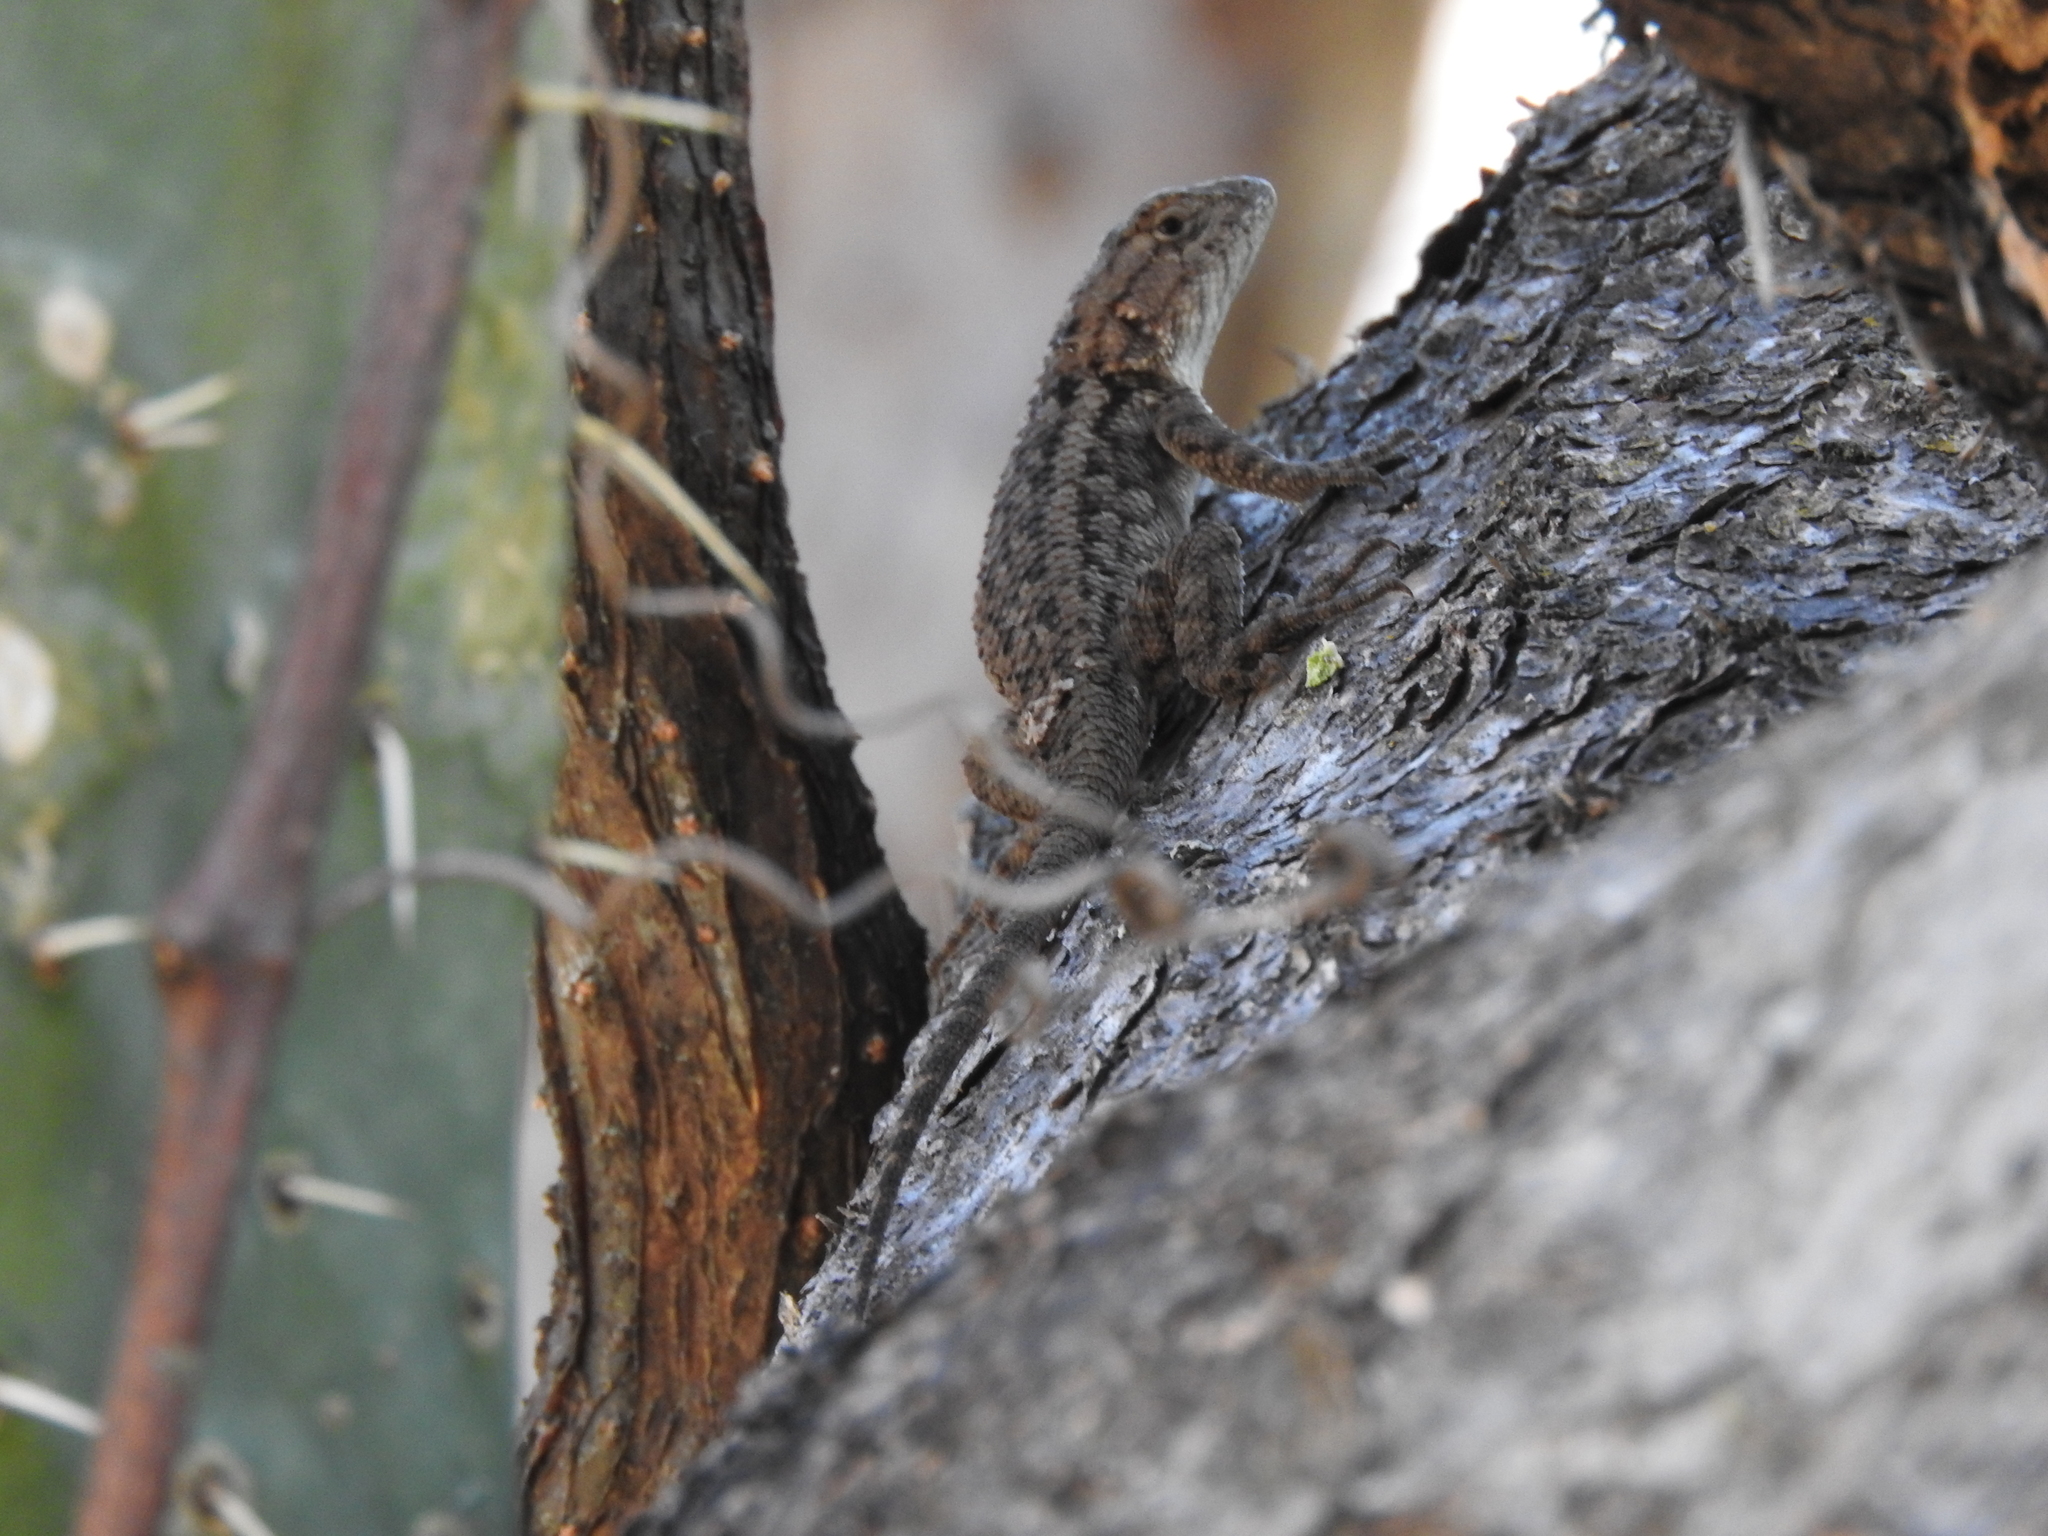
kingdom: Animalia
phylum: Chordata
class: Squamata
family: Phrynosomatidae
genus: Sceloporus
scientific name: Sceloporus spinosus
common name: Blue-spotted spiny lizard [caeruleopunctatus]
